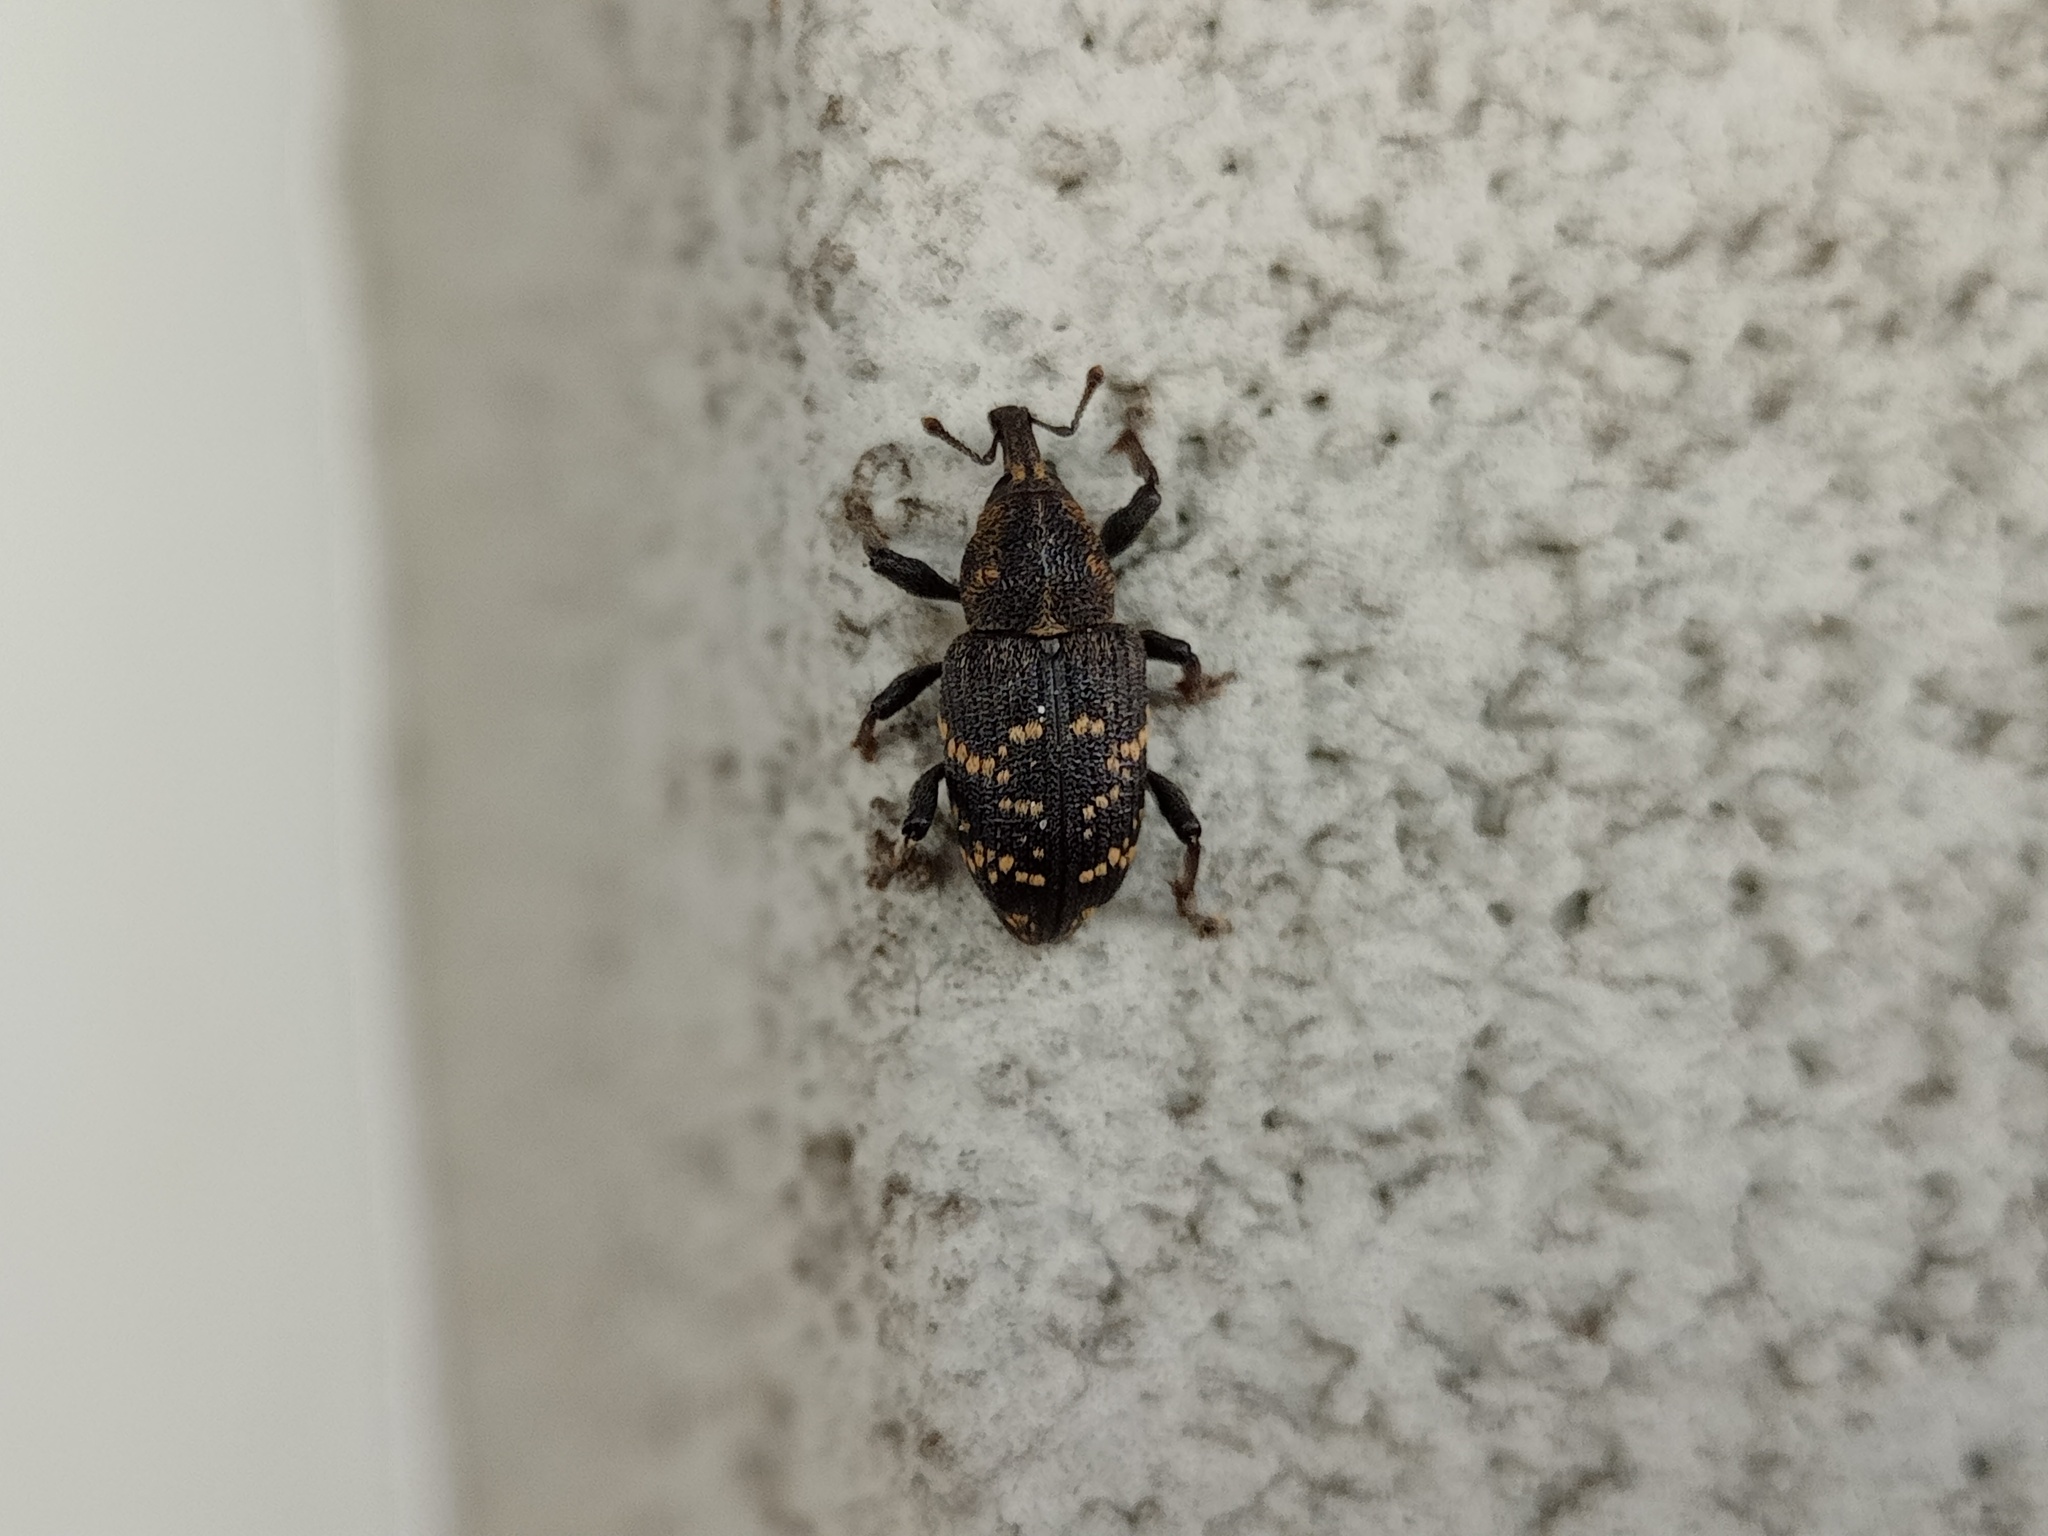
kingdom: Animalia
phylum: Arthropoda
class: Insecta
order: Coleoptera
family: Curculionidae
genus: Hylobius
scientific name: Hylobius abietis
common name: Large pine weevil
